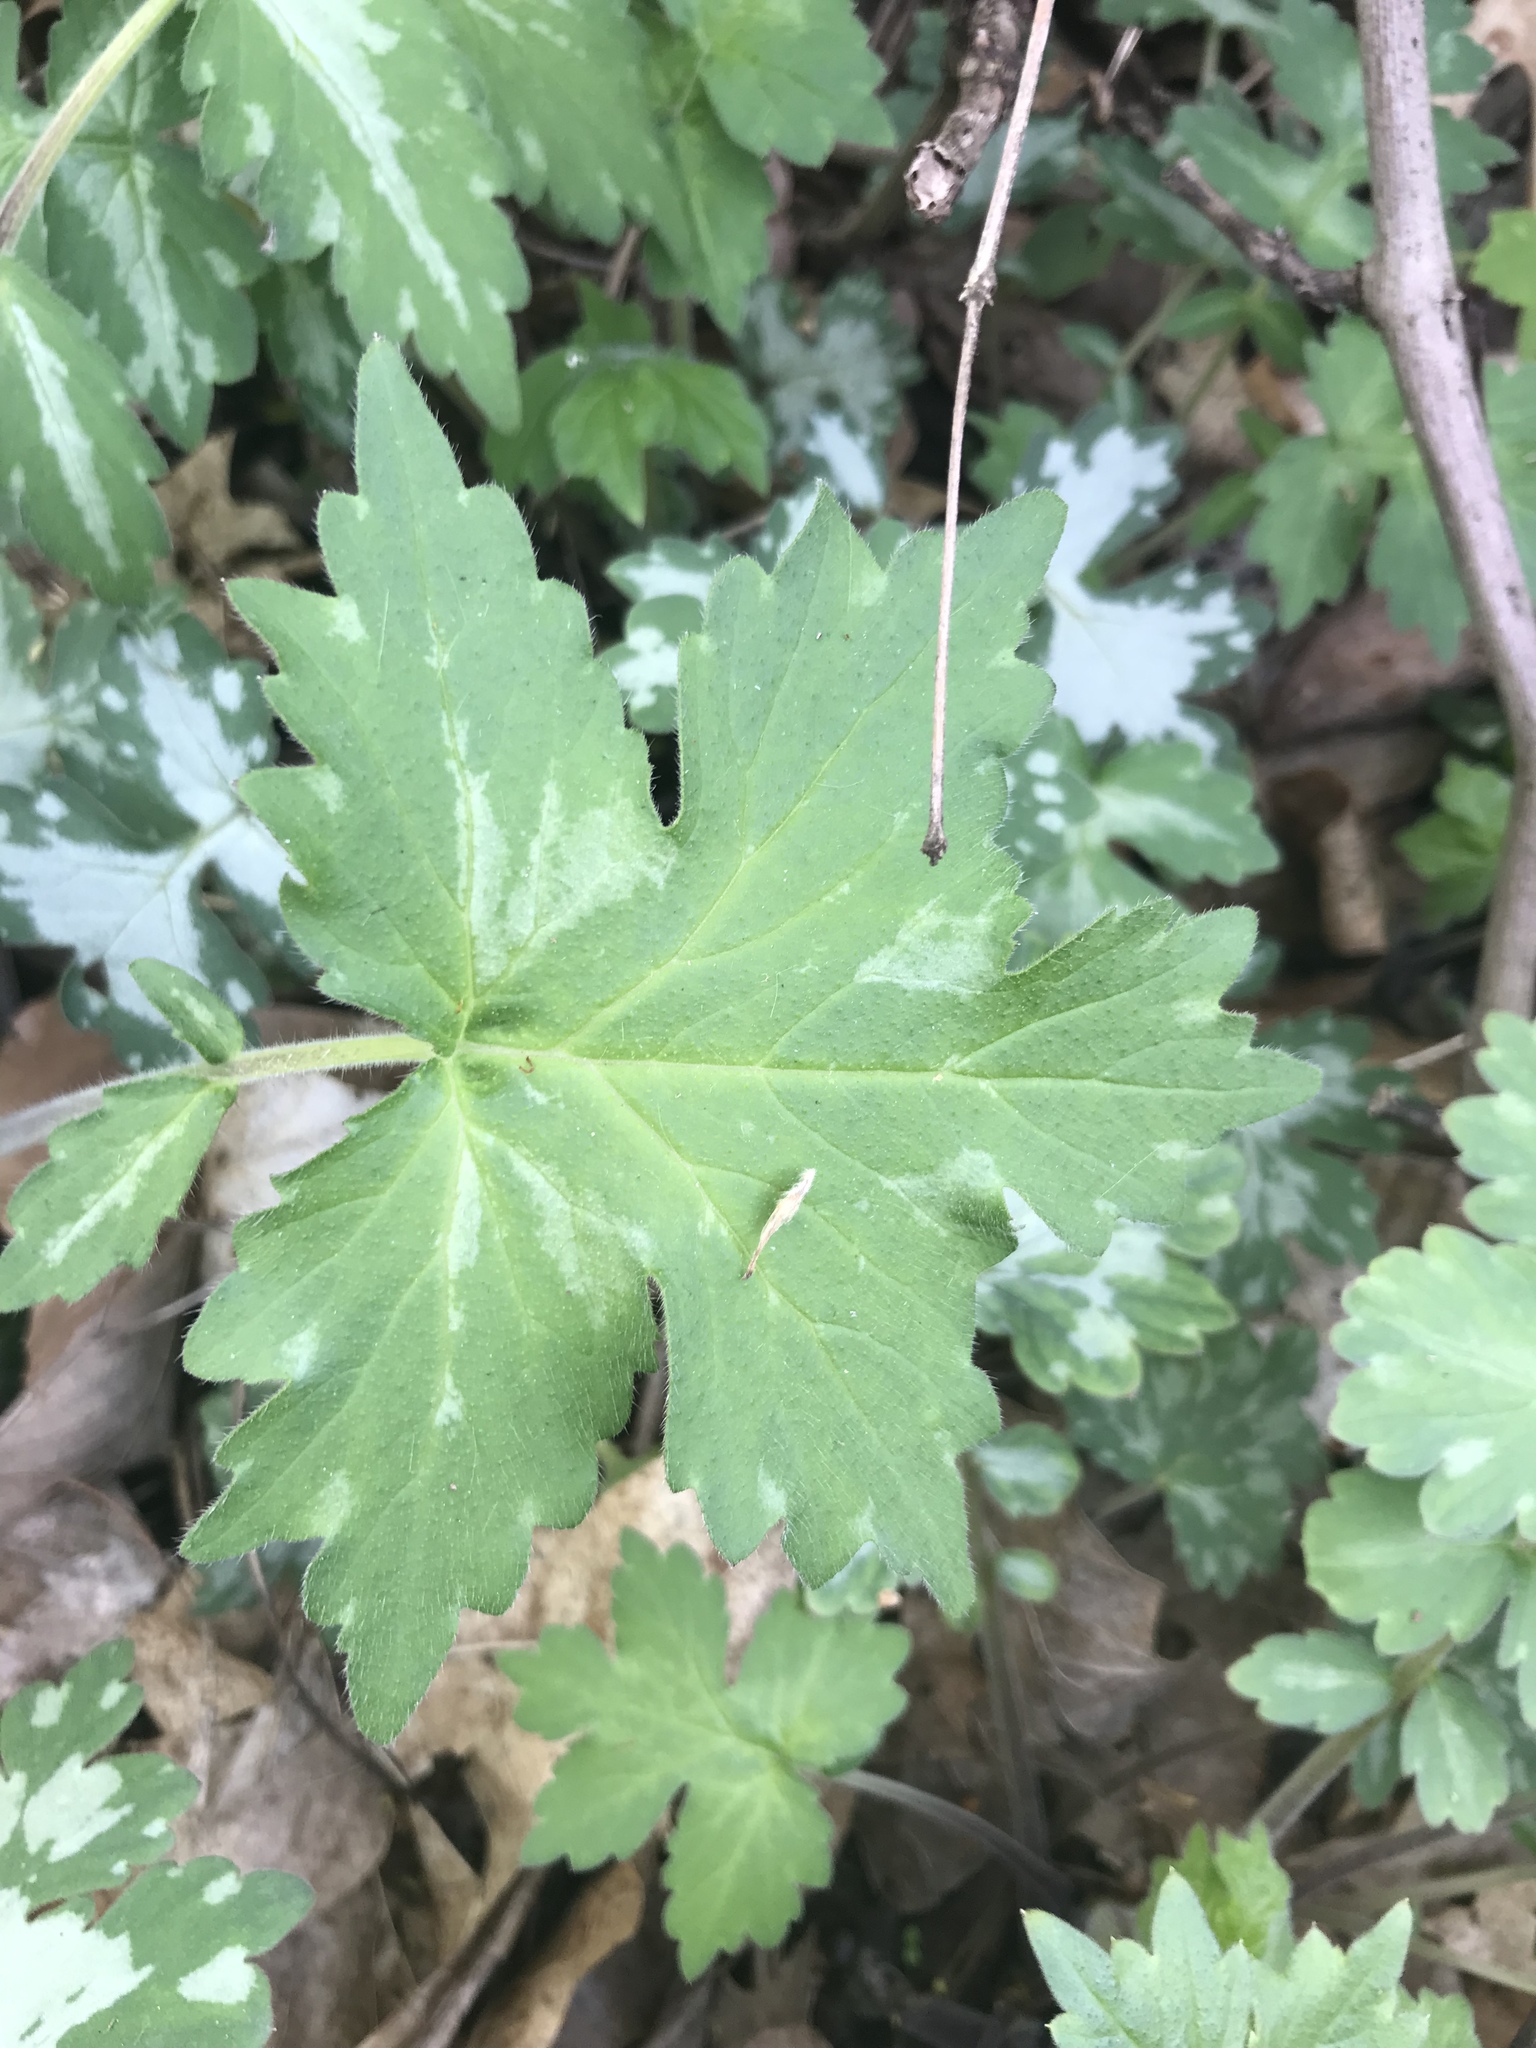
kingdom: Plantae
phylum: Tracheophyta
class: Magnoliopsida
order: Boraginales
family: Hydrophyllaceae
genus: Hydrophyllum
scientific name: Hydrophyllum appendiculatum
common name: Appendaged waterleaf
